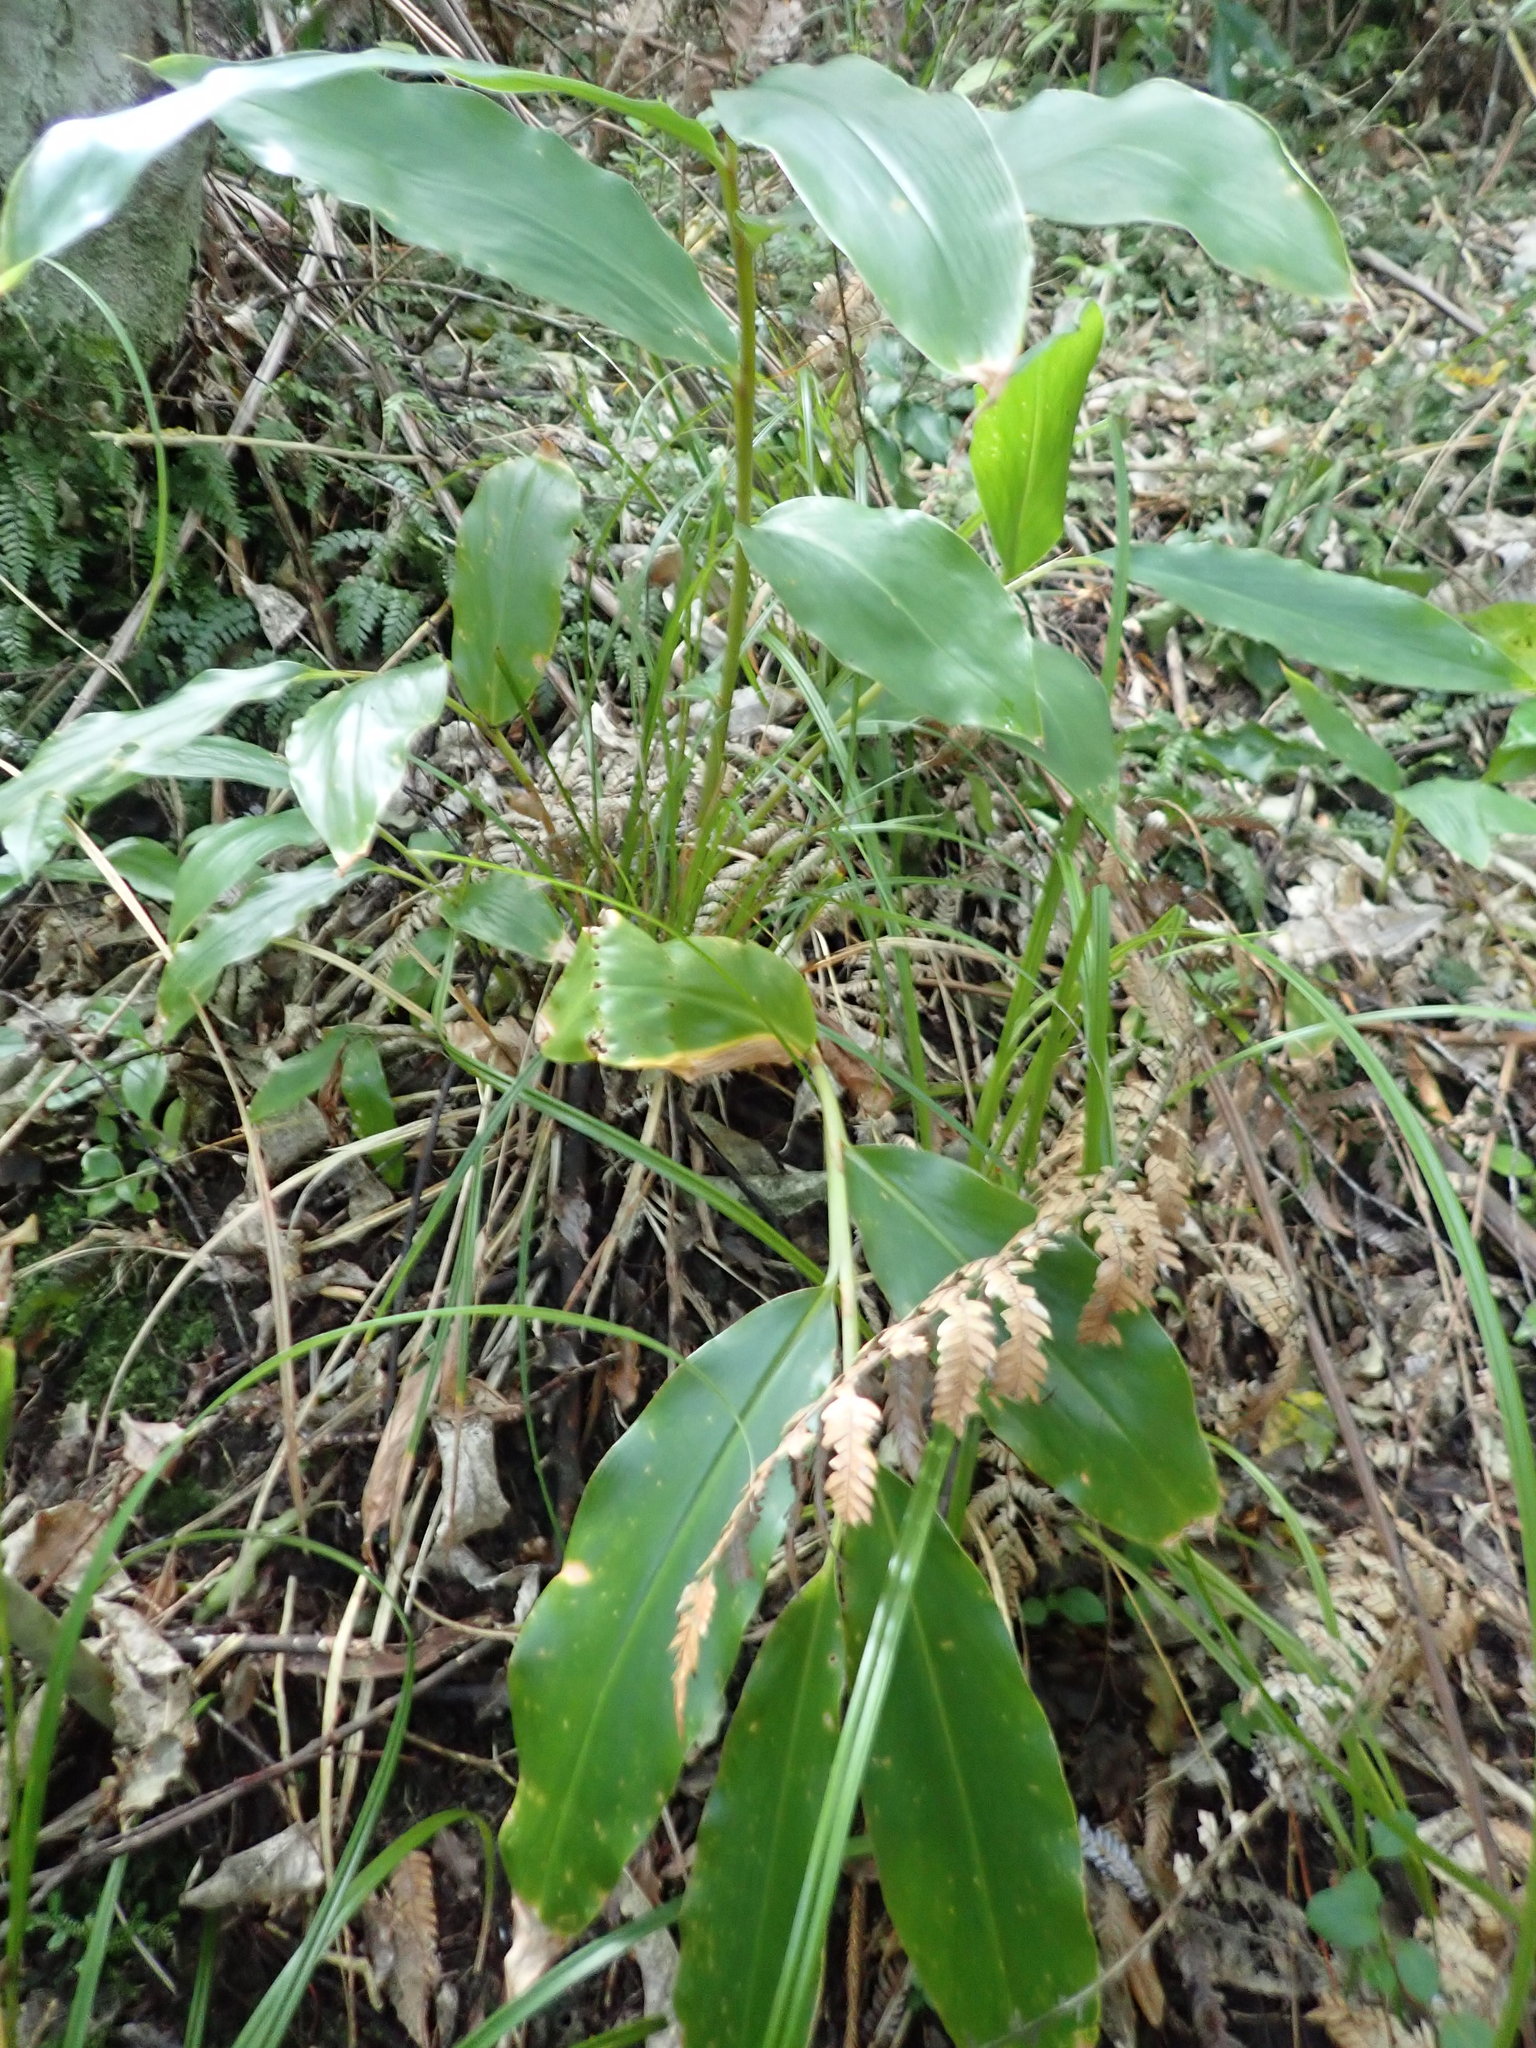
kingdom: Plantae
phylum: Tracheophyta
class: Liliopsida
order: Zingiberales
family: Zingiberaceae
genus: Hedychium
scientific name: Hedychium gardnerianum
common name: Himalayan ginger
